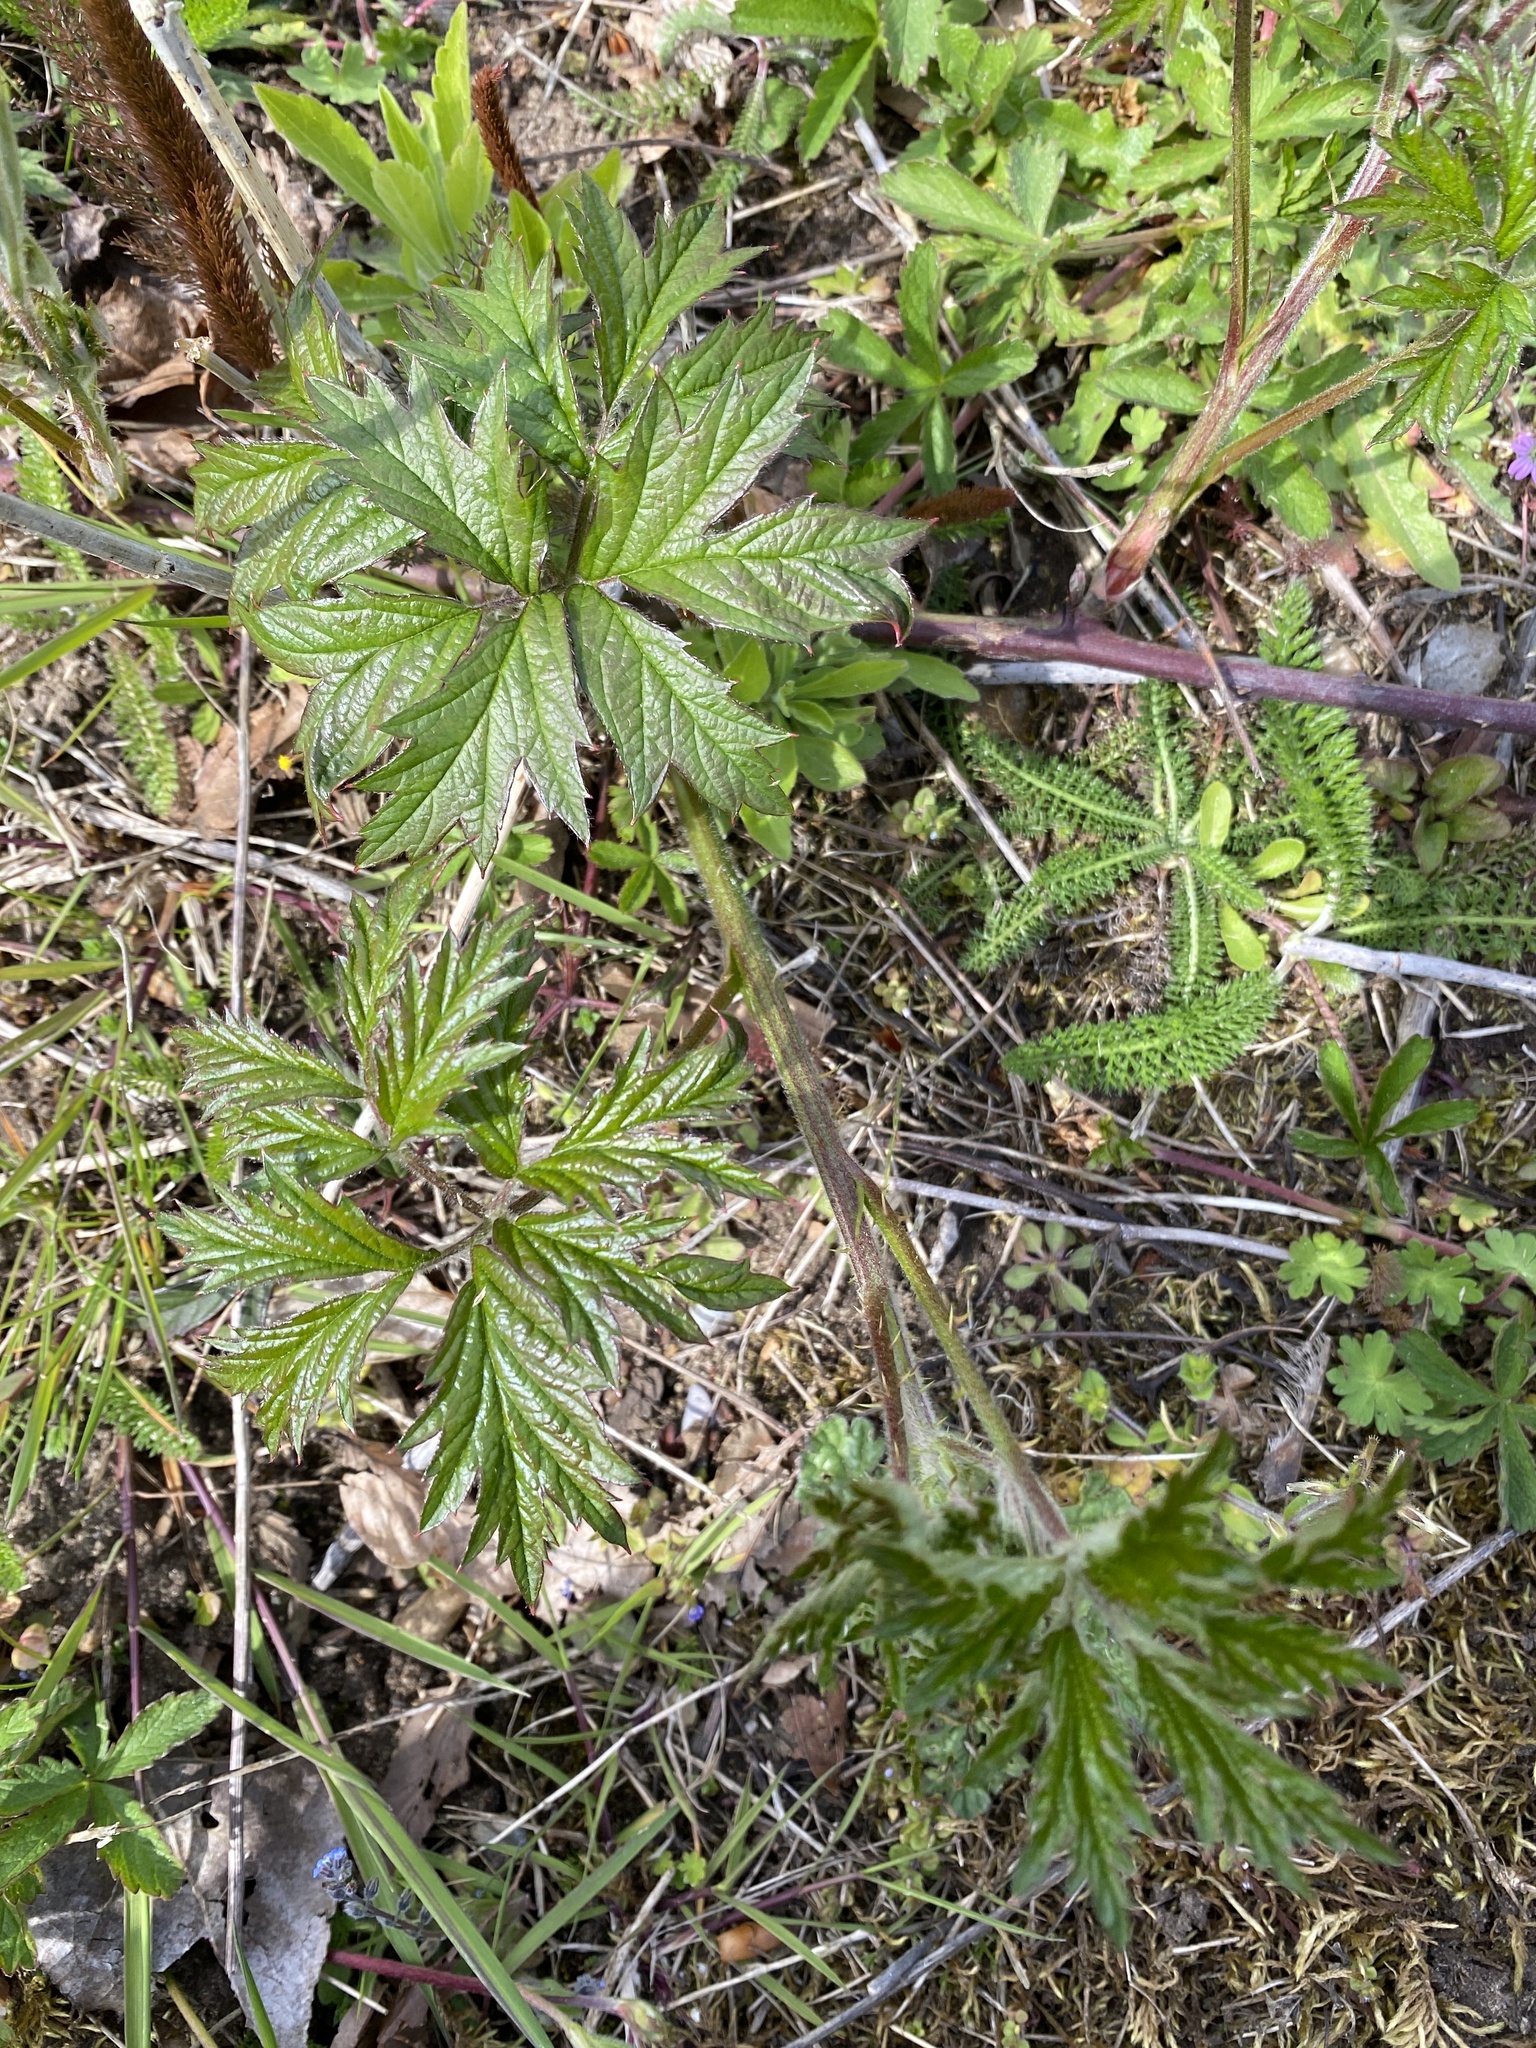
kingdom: Plantae
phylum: Tracheophyta
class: Magnoliopsida
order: Rosales
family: Rosaceae
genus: Rubus
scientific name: Rubus laciniatus
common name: Evergreen blackberry
